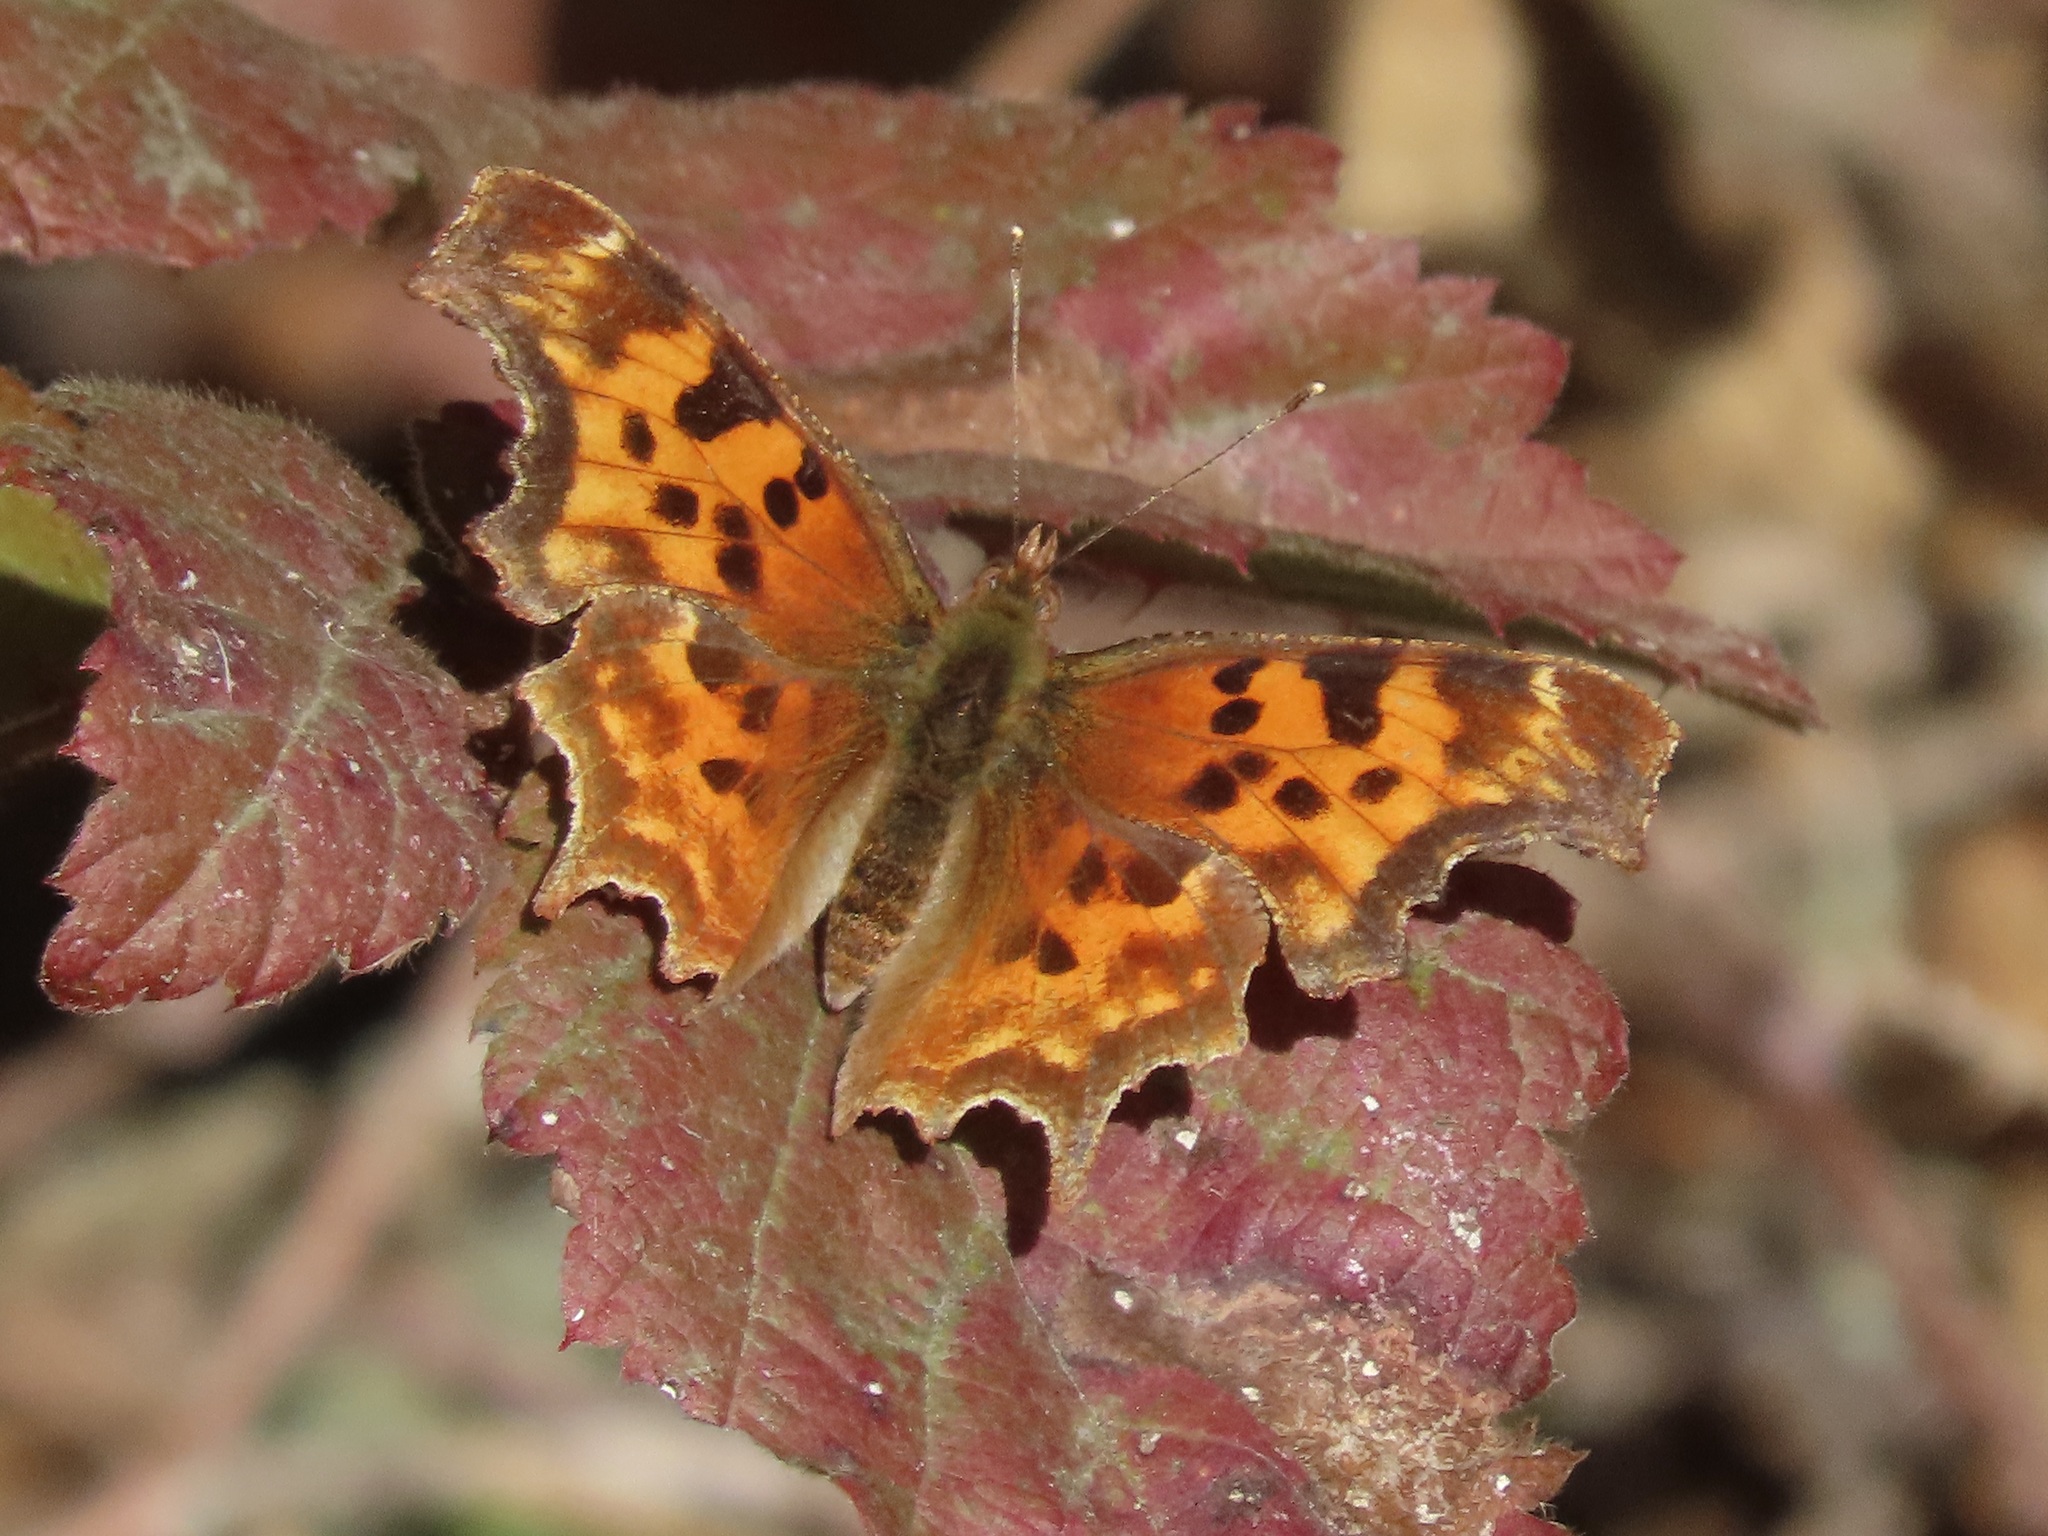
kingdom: Animalia
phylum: Arthropoda
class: Insecta
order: Lepidoptera
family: Nymphalidae
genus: Polygonia
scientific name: Polygonia satyrus
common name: Satyr angle wing
